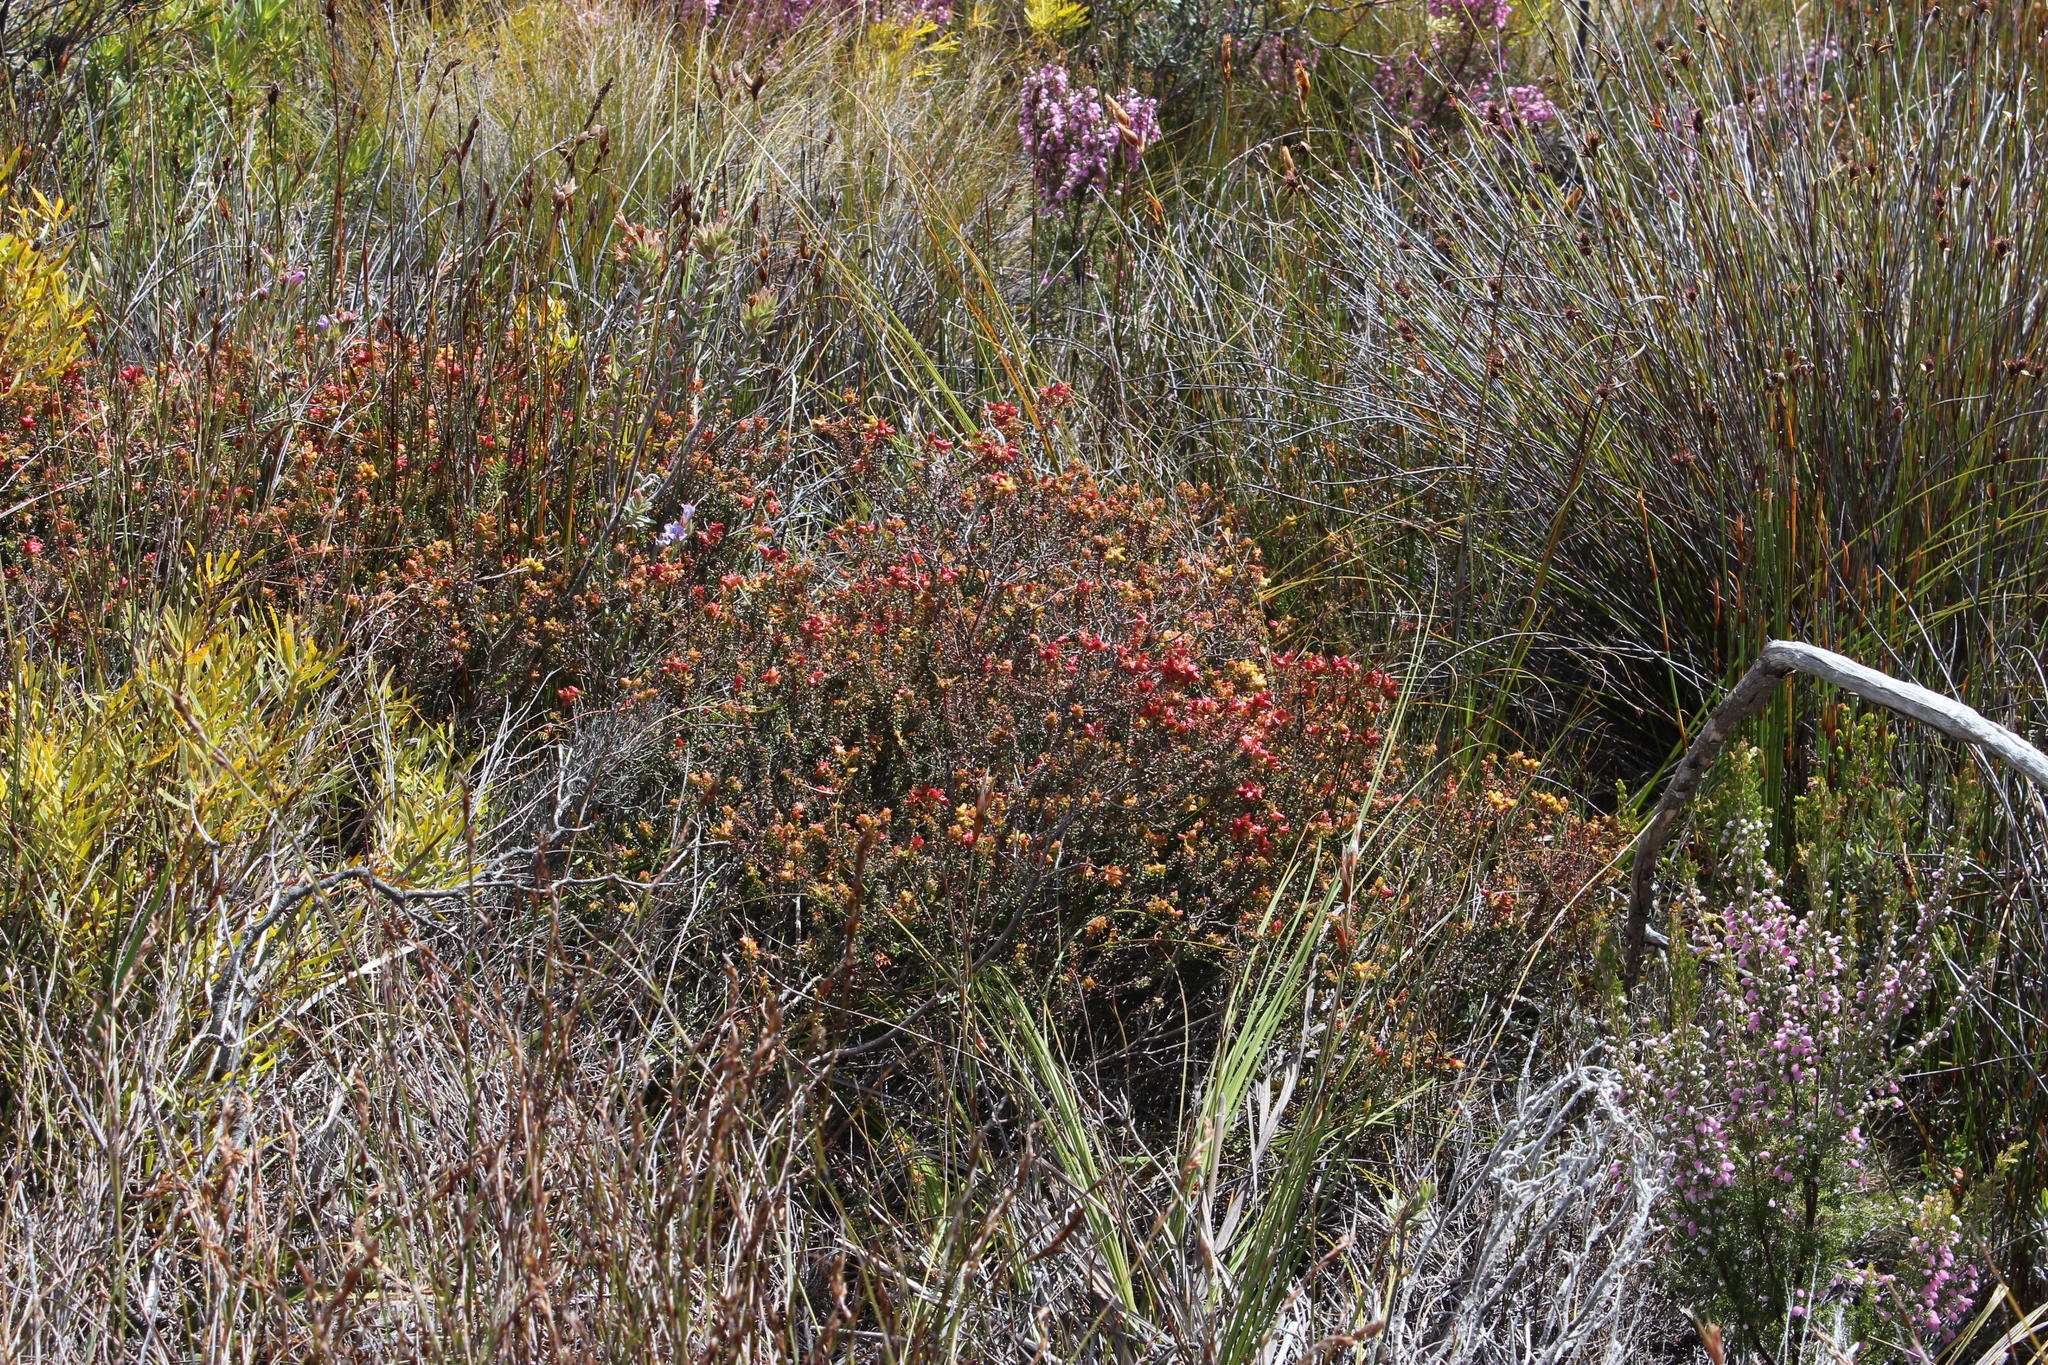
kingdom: Plantae
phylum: Tracheophyta
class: Magnoliopsida
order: Myrtales
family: Penaeaceae
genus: Penaea
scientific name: Penaea mucronata
